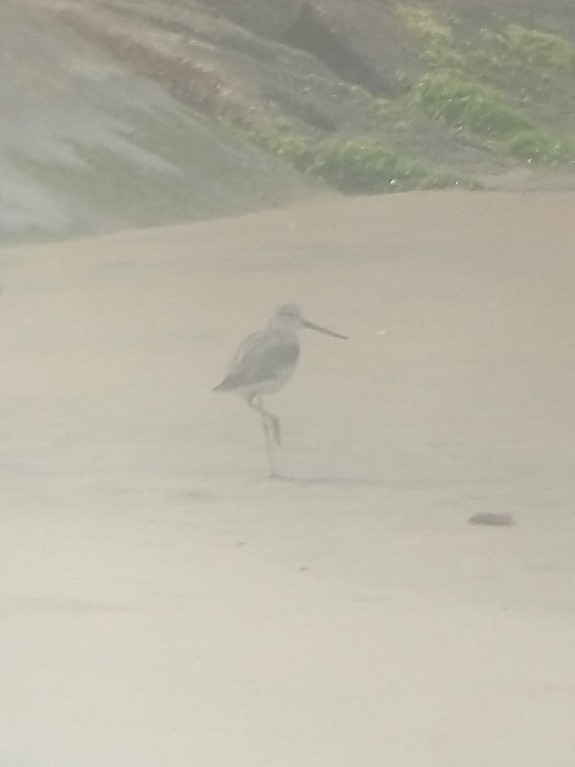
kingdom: Animalia
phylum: Chordata
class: Aves
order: Charadriiformes
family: Scolopacidae
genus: Tringa
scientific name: Tringa nebularia
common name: Common greenshank
